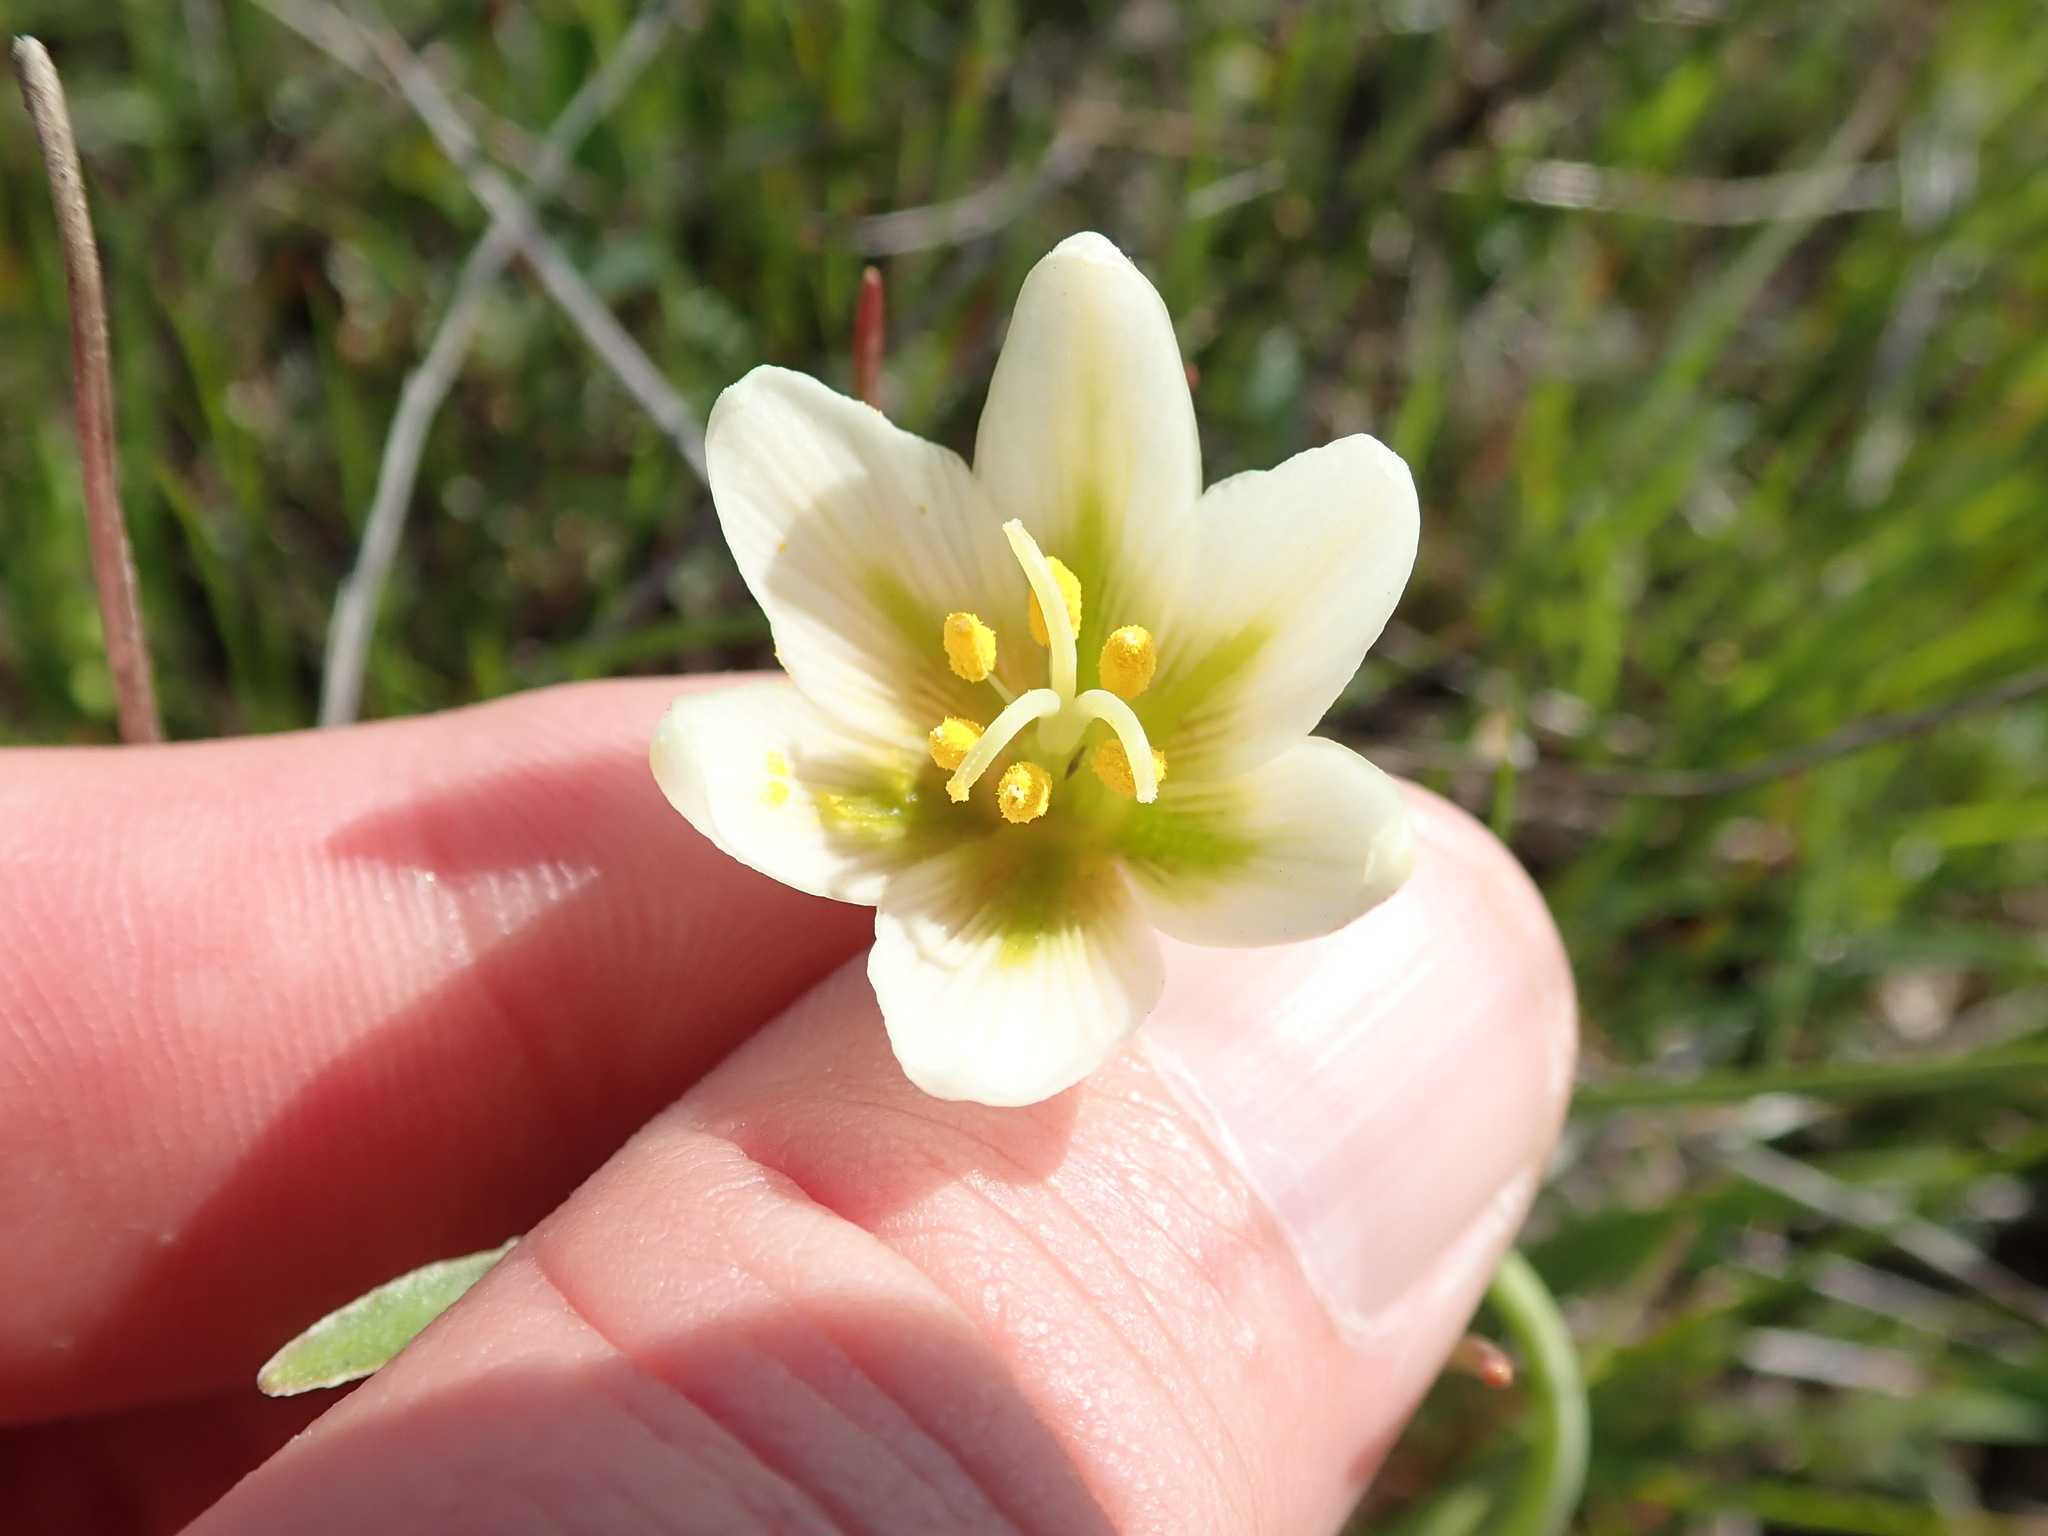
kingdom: Plantae
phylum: Tracheophyta
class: Liliopsida
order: Liliales
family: Liliaceae
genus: Fritillaria
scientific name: Fritillaria liliacea
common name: Fragrant fritillary
